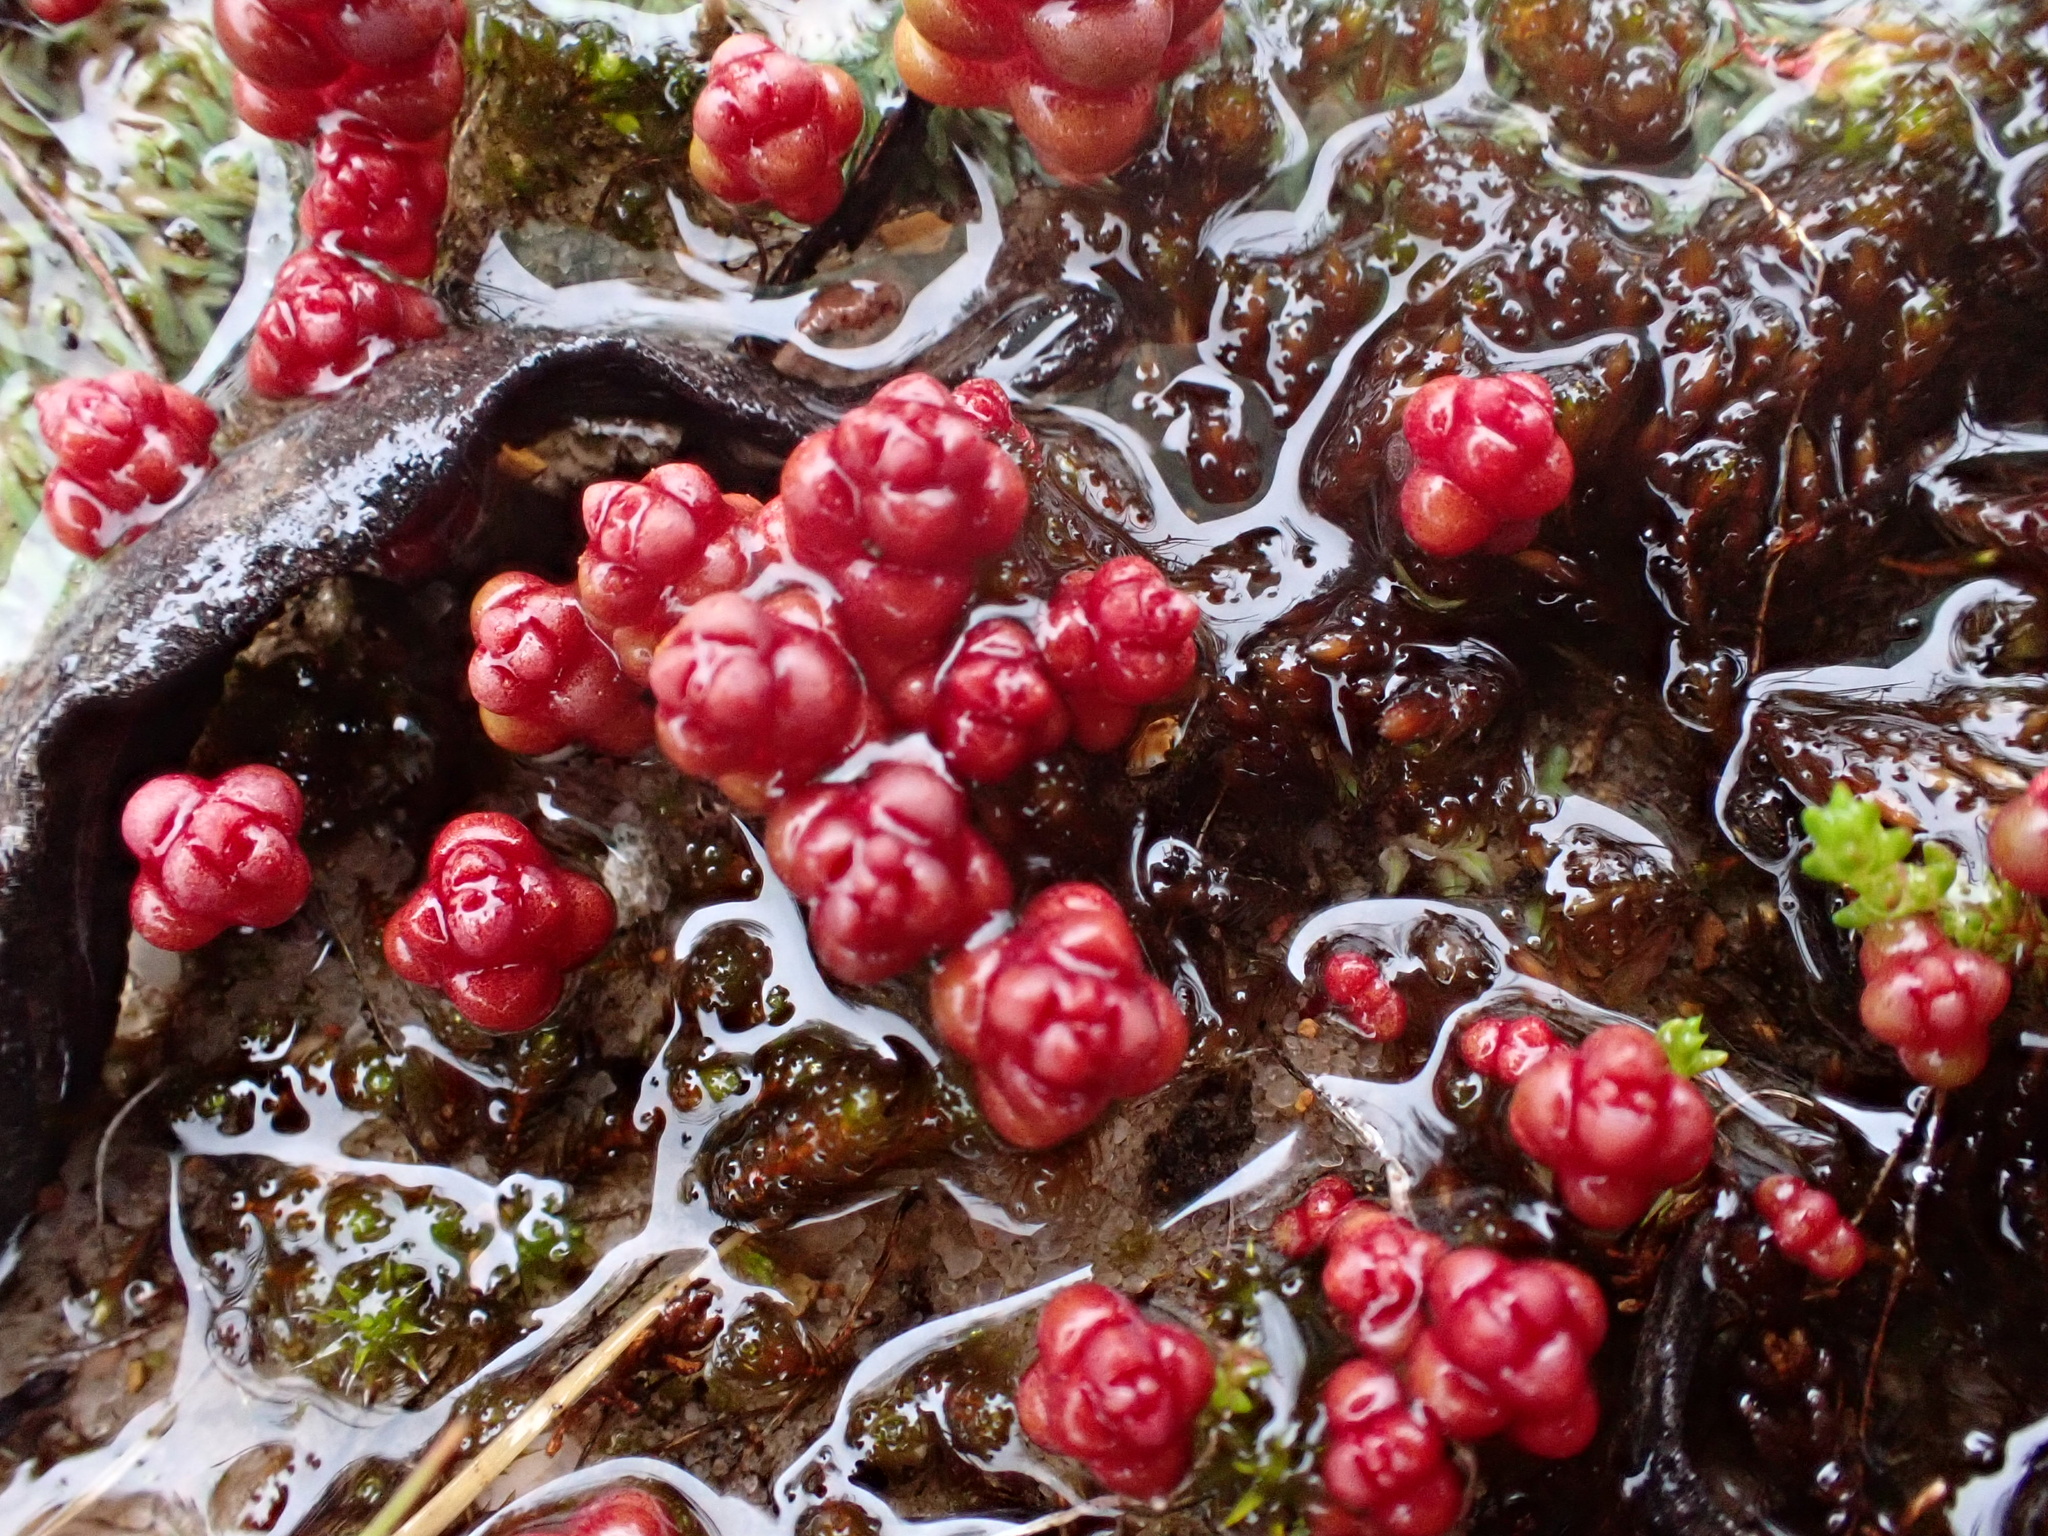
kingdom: Plantae
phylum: Tracheophyta
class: Magnoliopsida
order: Saxifragales
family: Crassulaceae
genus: Sedum
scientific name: Sedum andegavense
